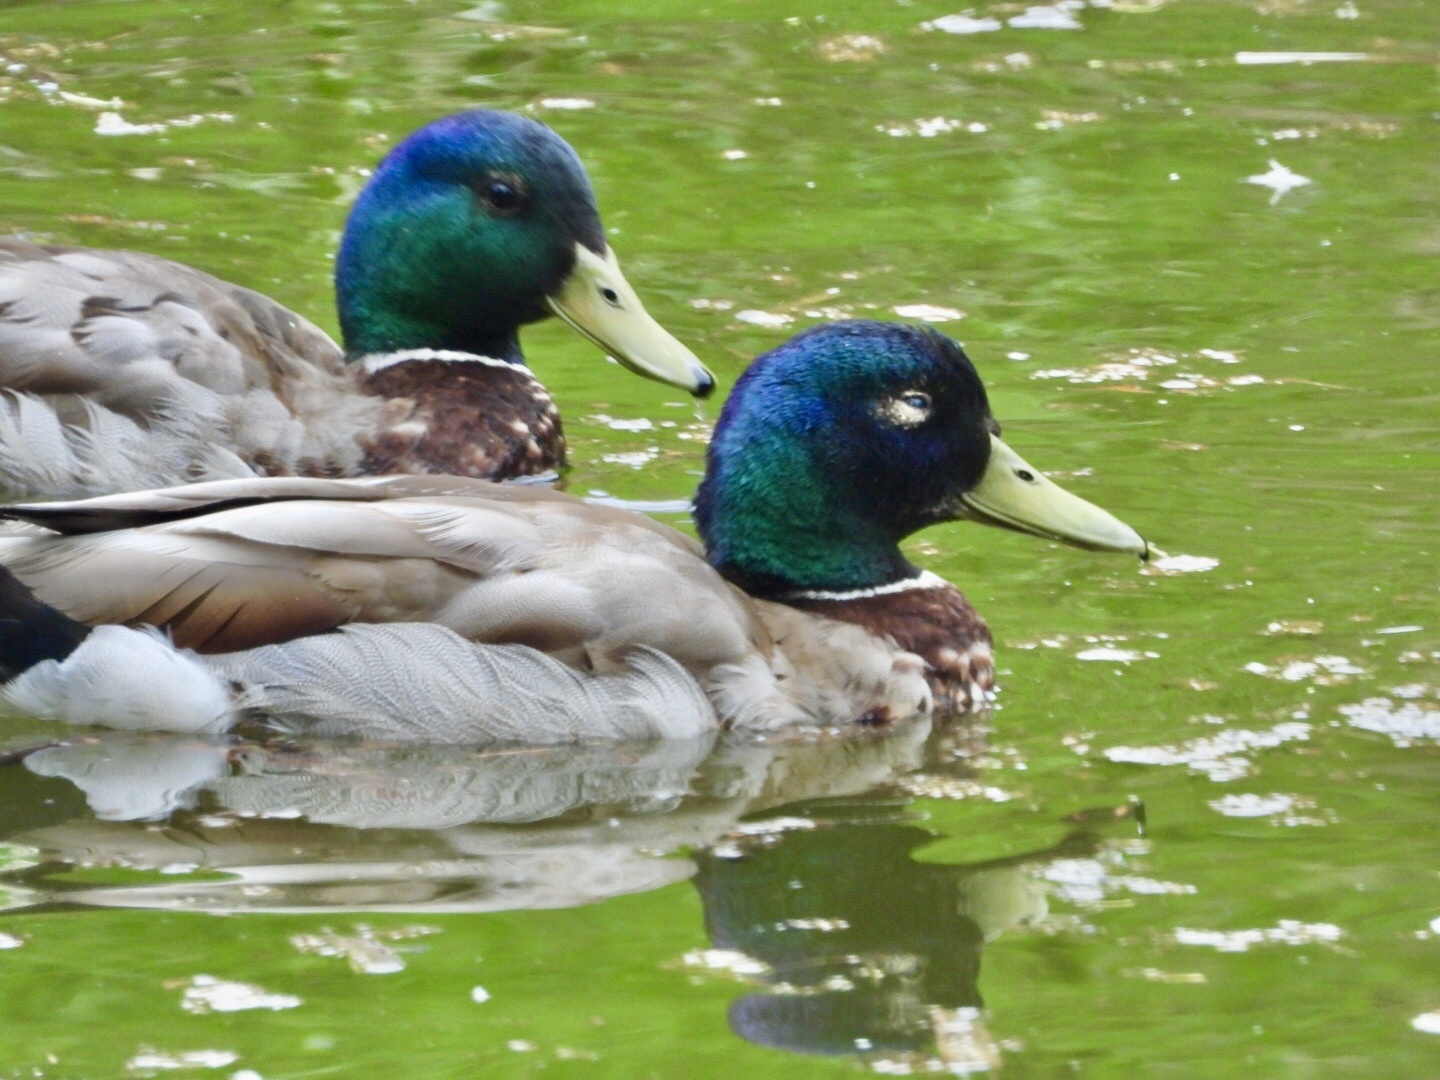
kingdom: Animalia
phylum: Chordata
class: Aves
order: Anseriformes
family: Anatidae
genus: Anas
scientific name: Anas platyrhynchos
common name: Mallard
